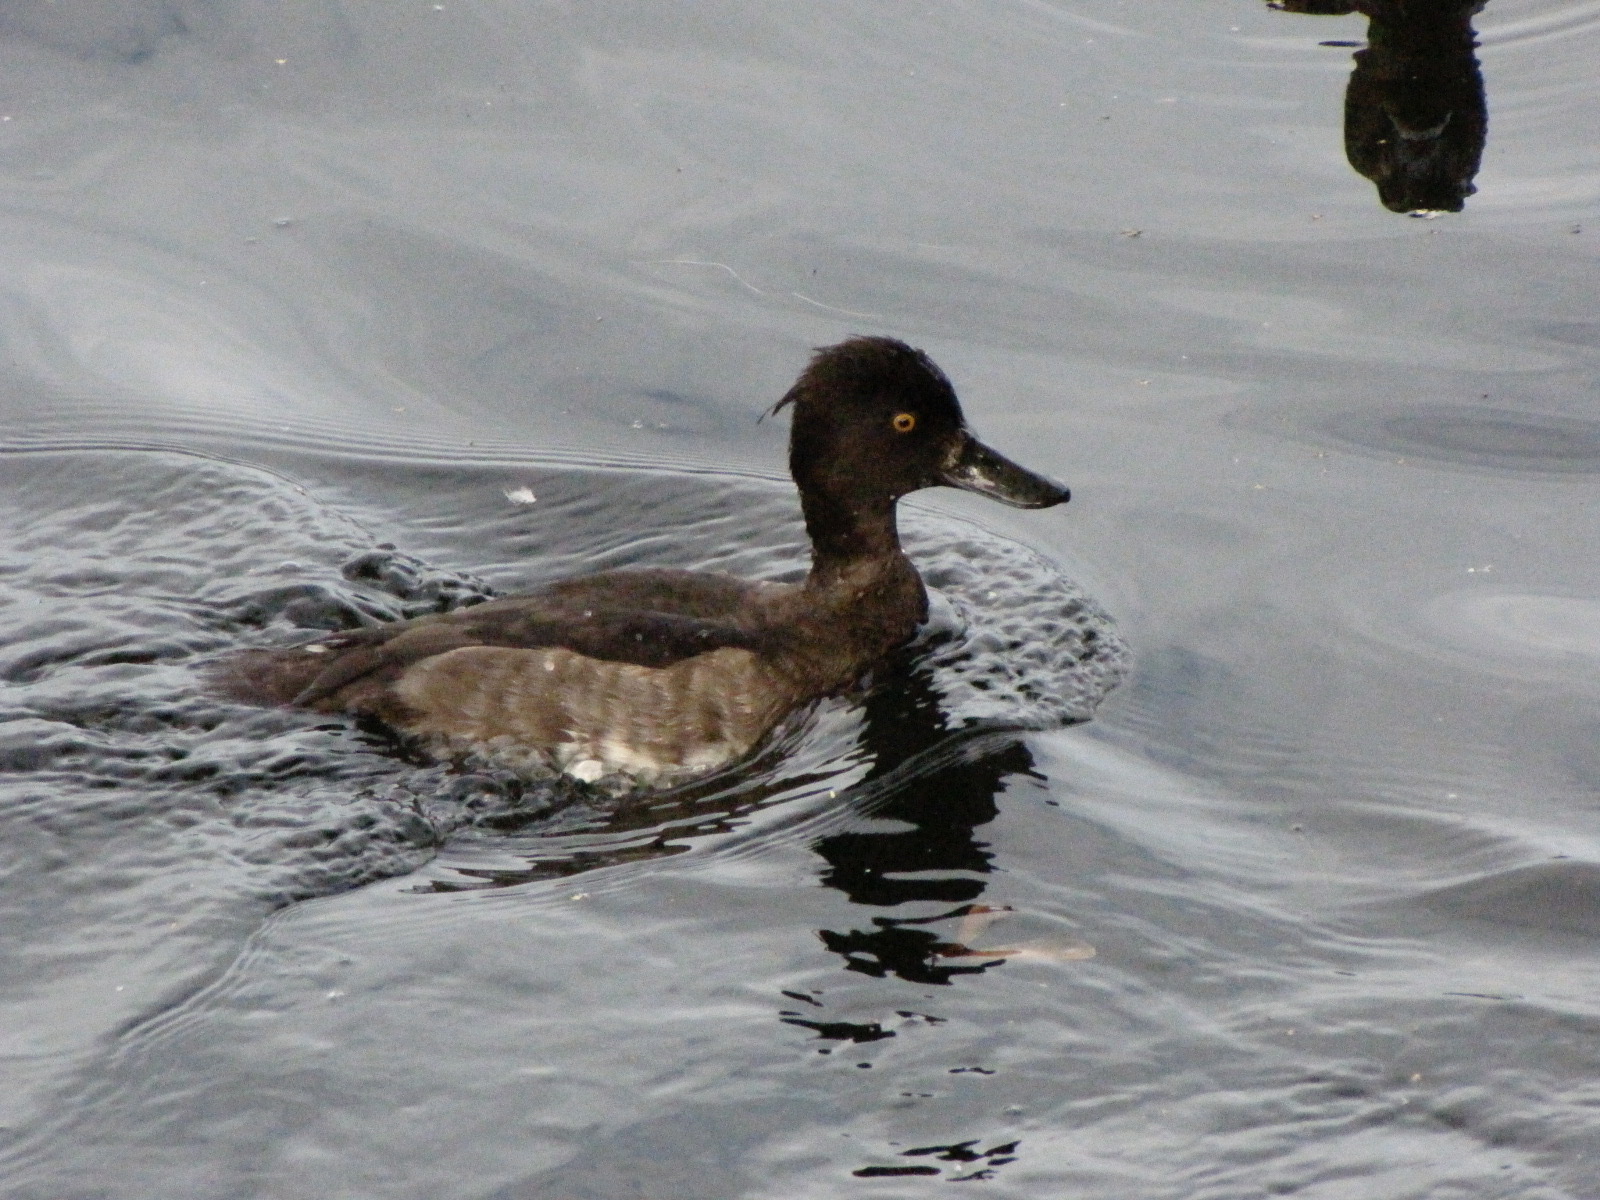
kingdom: Animalia
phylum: Chordata
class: Aves
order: Anseriformes
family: Anatidae
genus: Aythya
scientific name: Aythya fuligula
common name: Tufted duck
